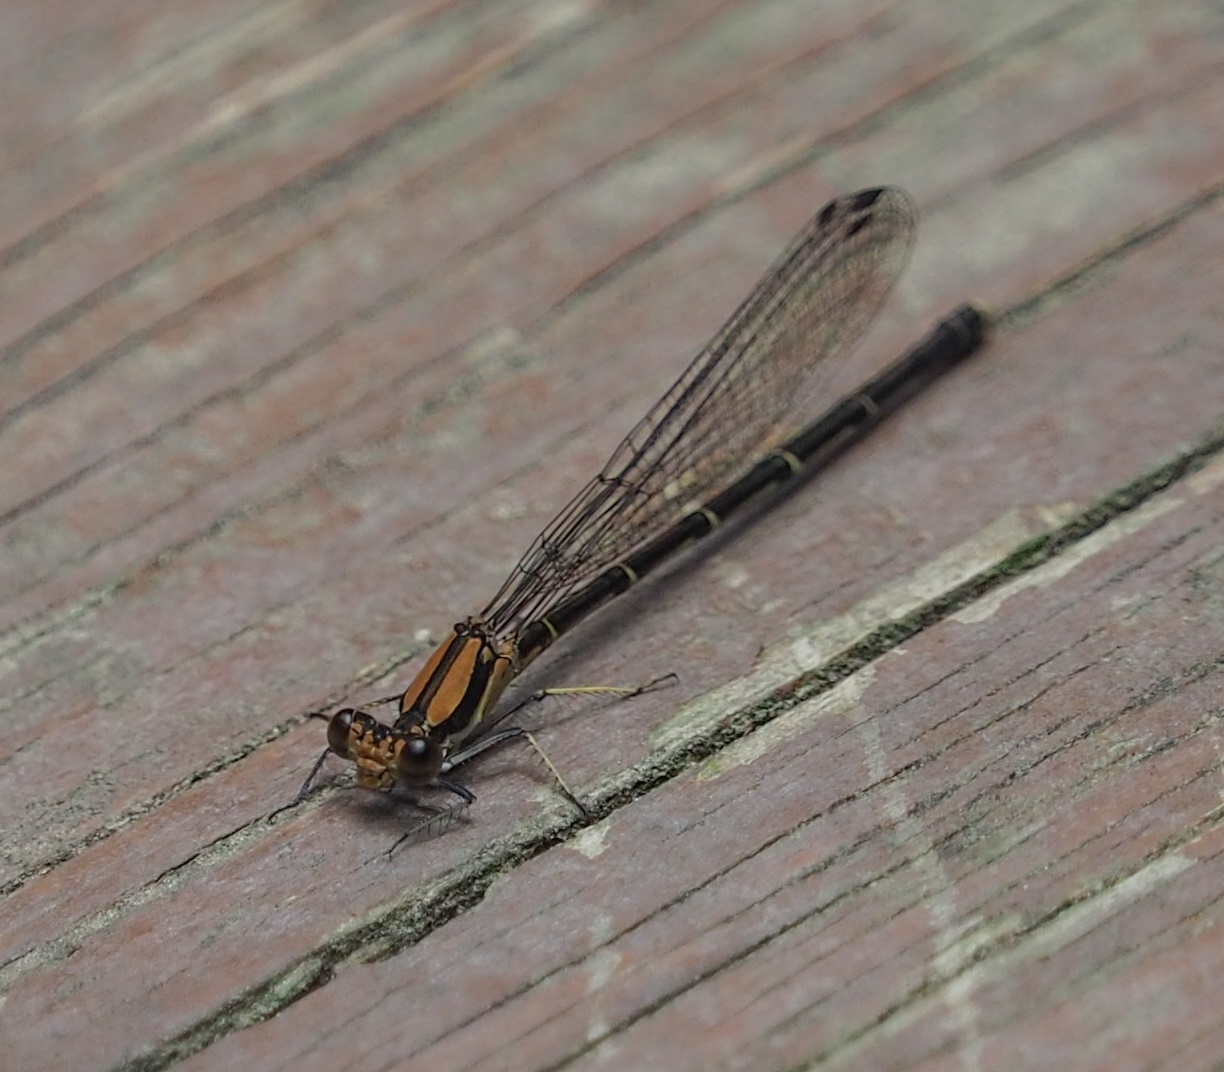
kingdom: Animalia
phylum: Arthropoda
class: Insecta
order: Odonata
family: Coenagrionidae
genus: Argia
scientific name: Argia tibialis
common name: Blue-tipped dancer
